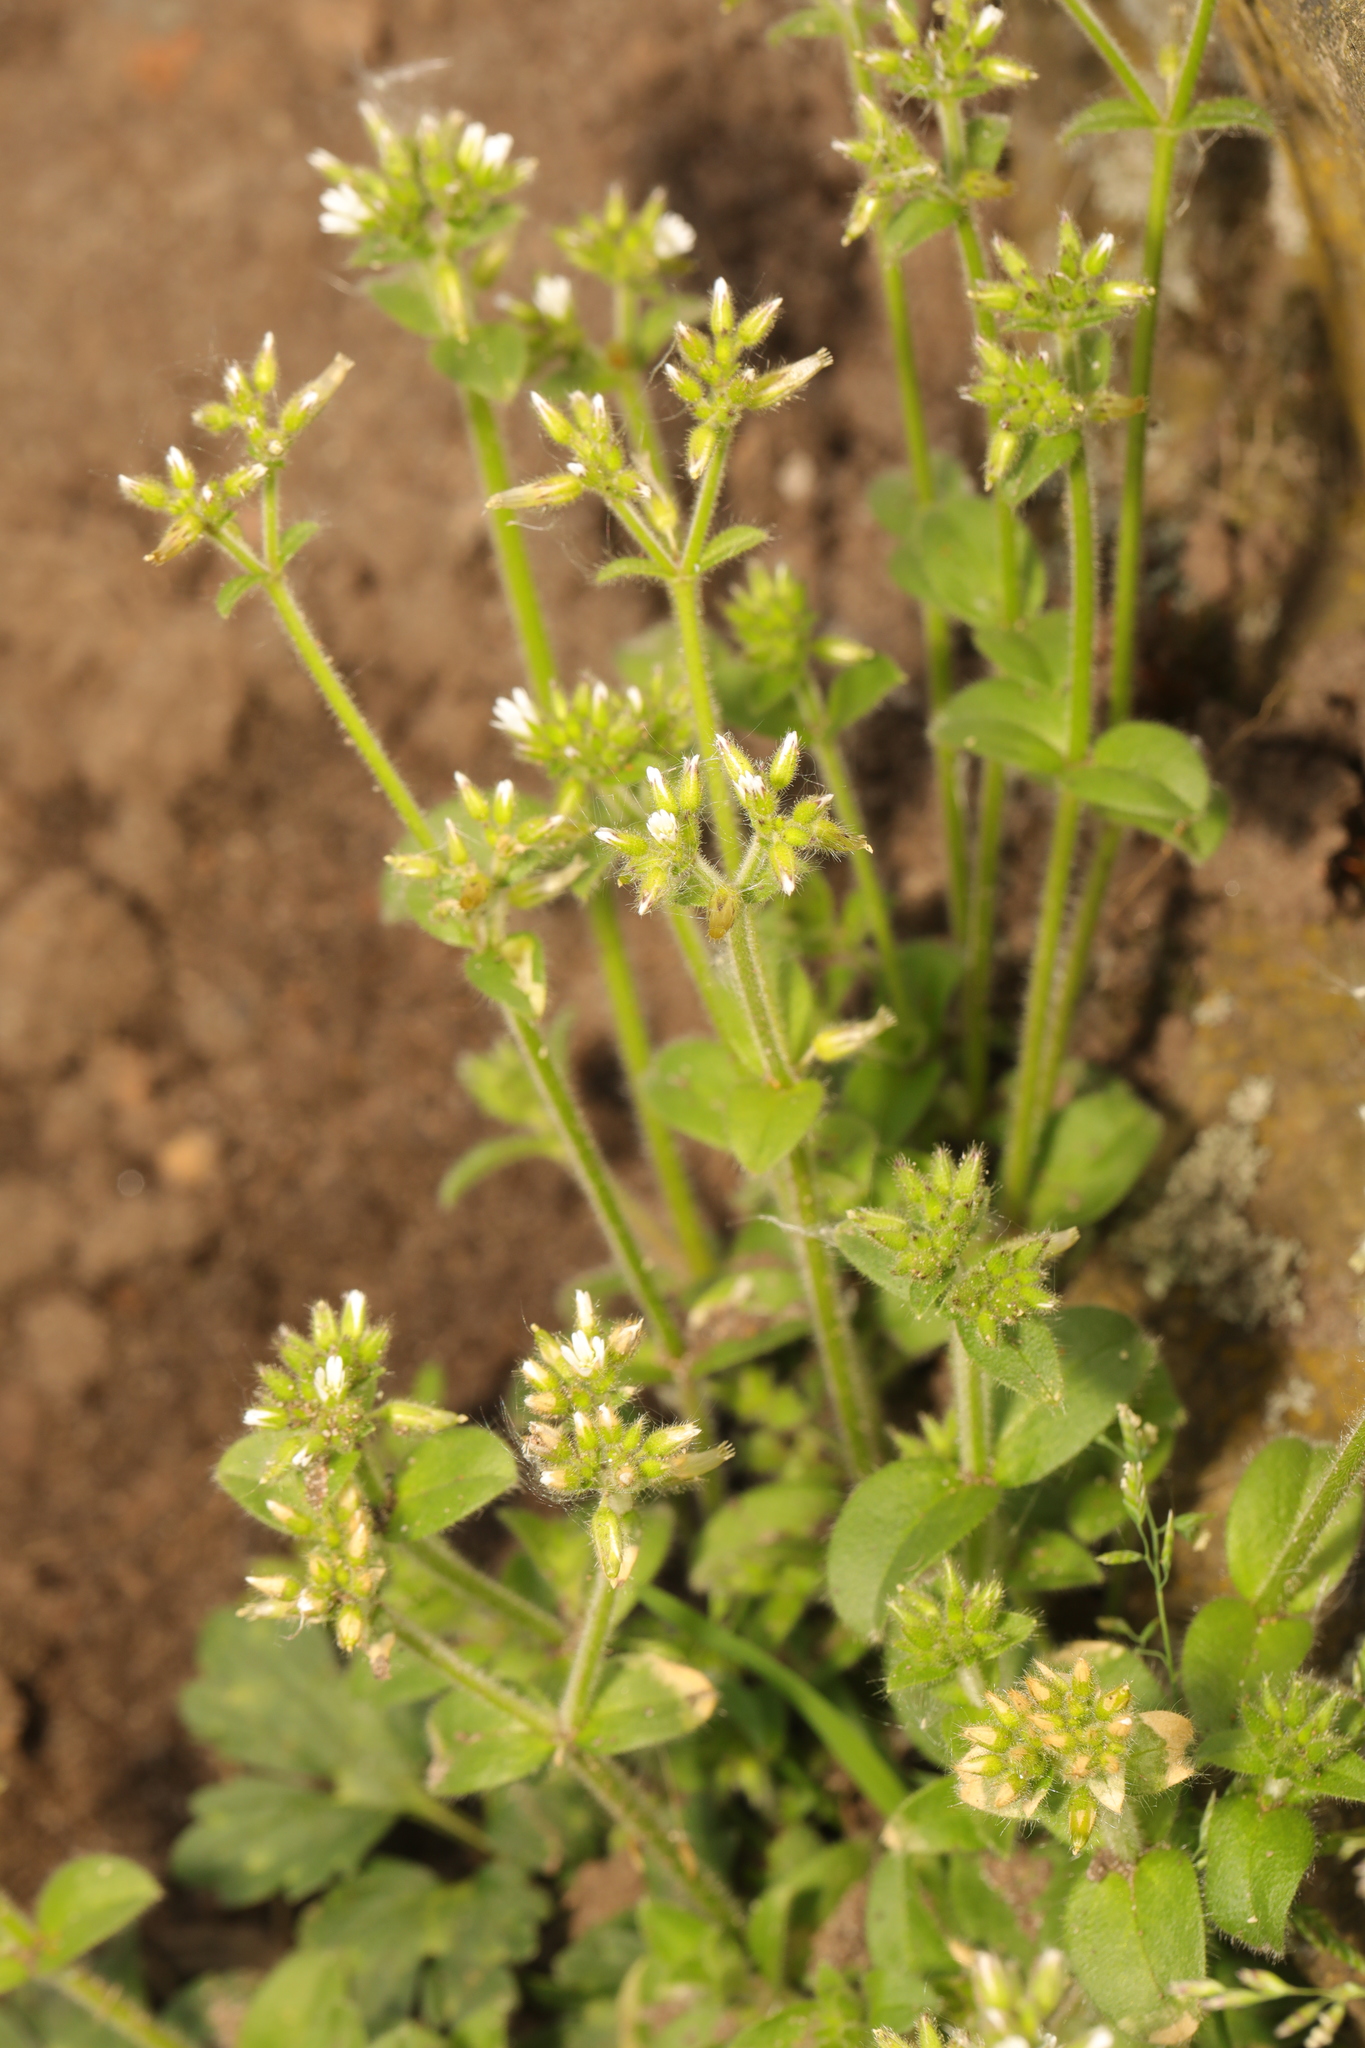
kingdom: Plantae
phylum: Tracheophyta
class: Magnoliopsida
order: Caryophyllales
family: Caryophyllaceae
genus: Cerastium
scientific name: Cerastium glomeratum
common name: Sticky chickweed
